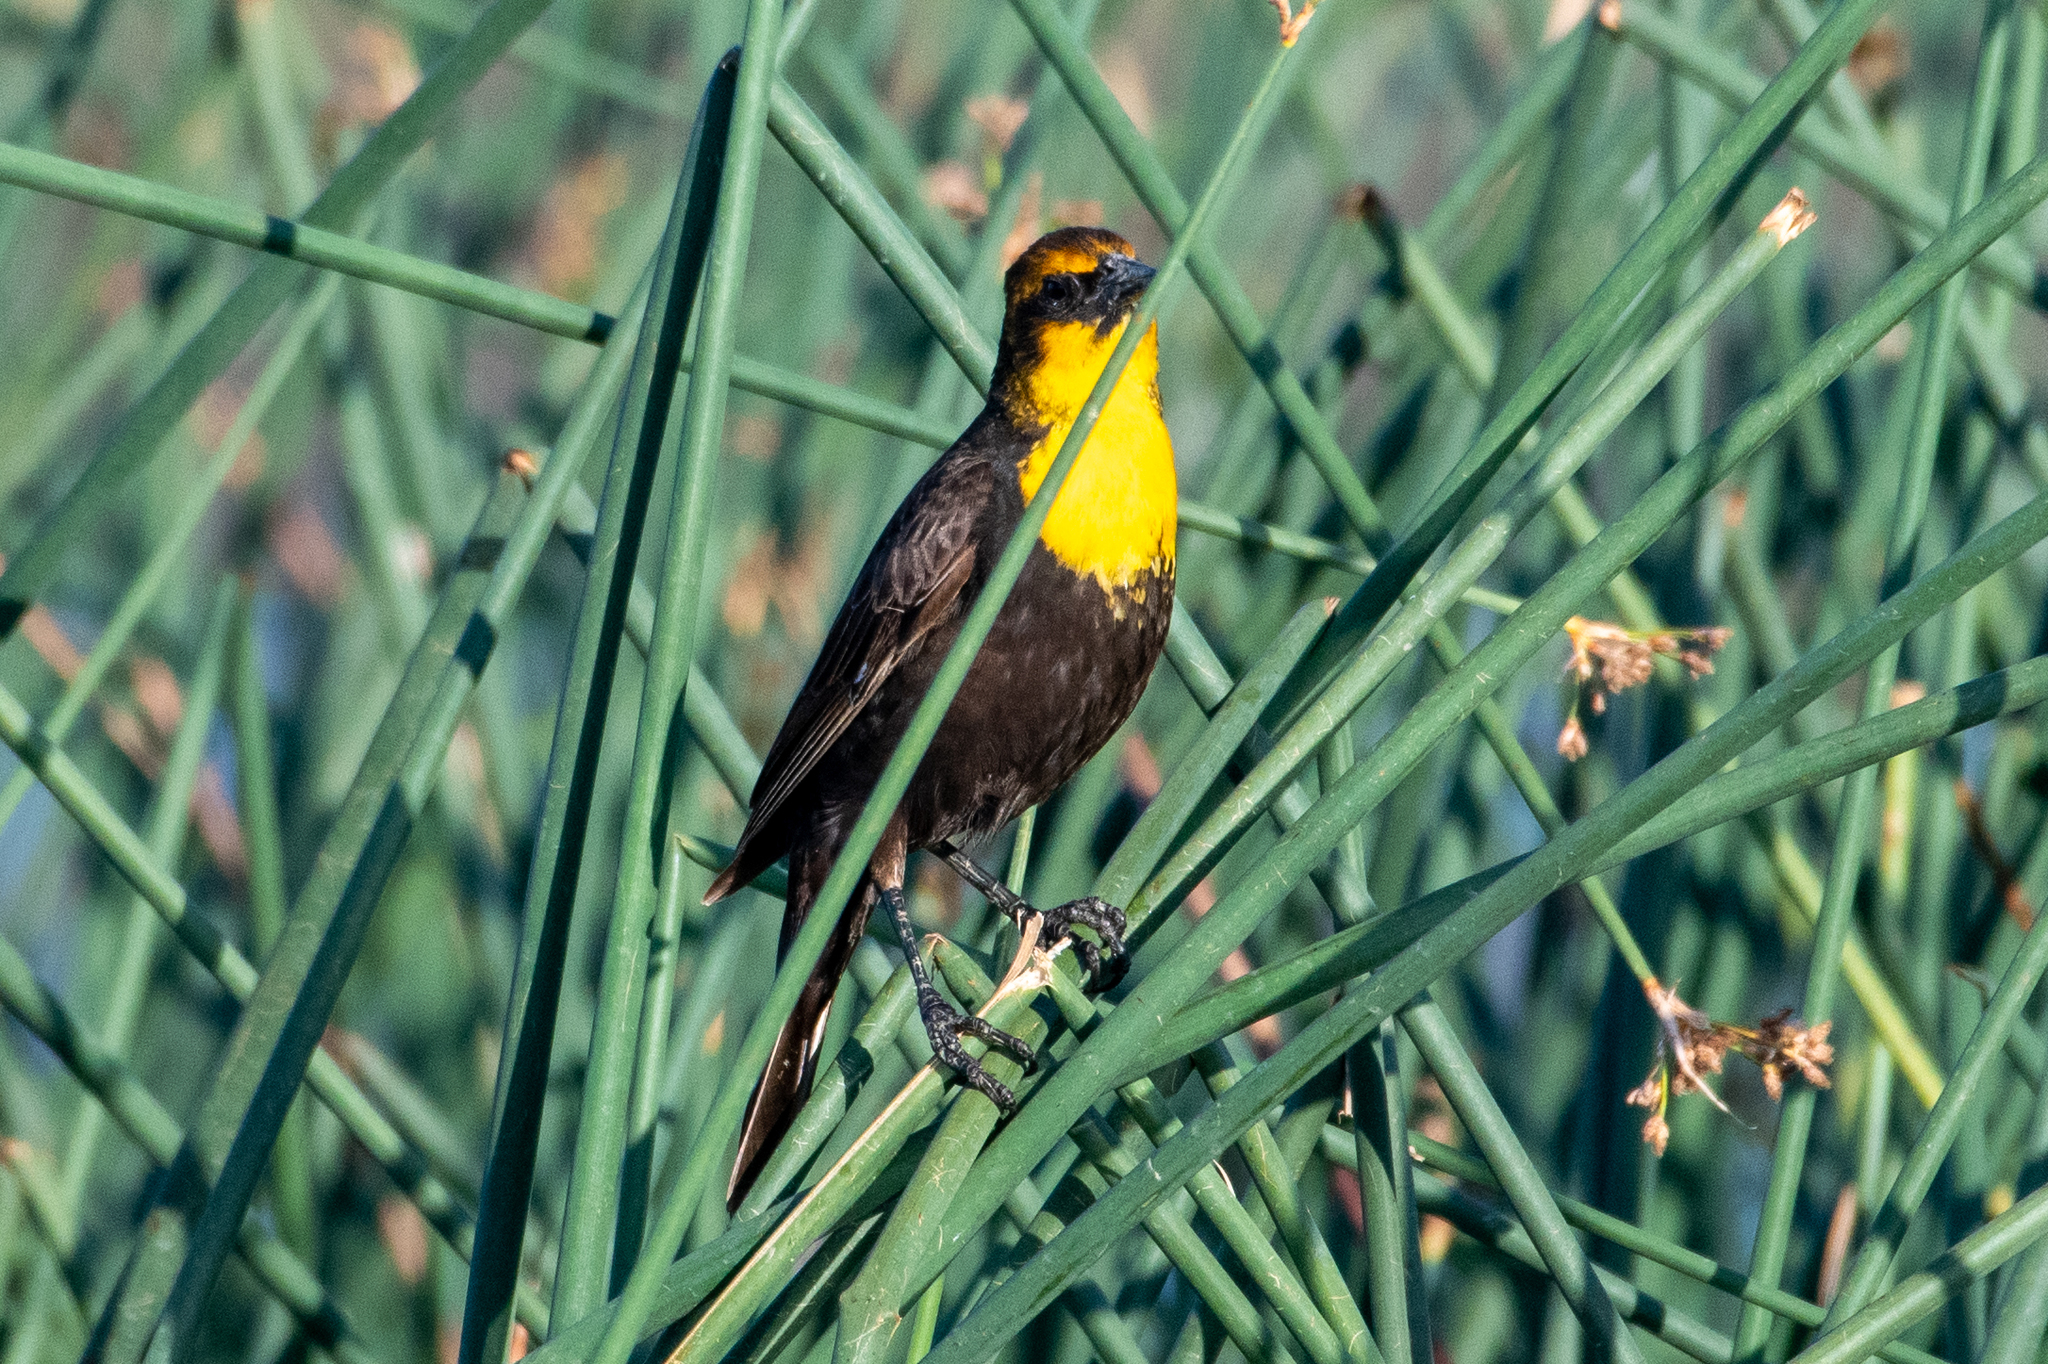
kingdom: Animalia
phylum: Chordata
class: Aves
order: Passeriformes
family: Icteridae
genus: Xanthocephalus
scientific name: Xanthocephalus xanthocephalus
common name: Yellow-headed blackbird
